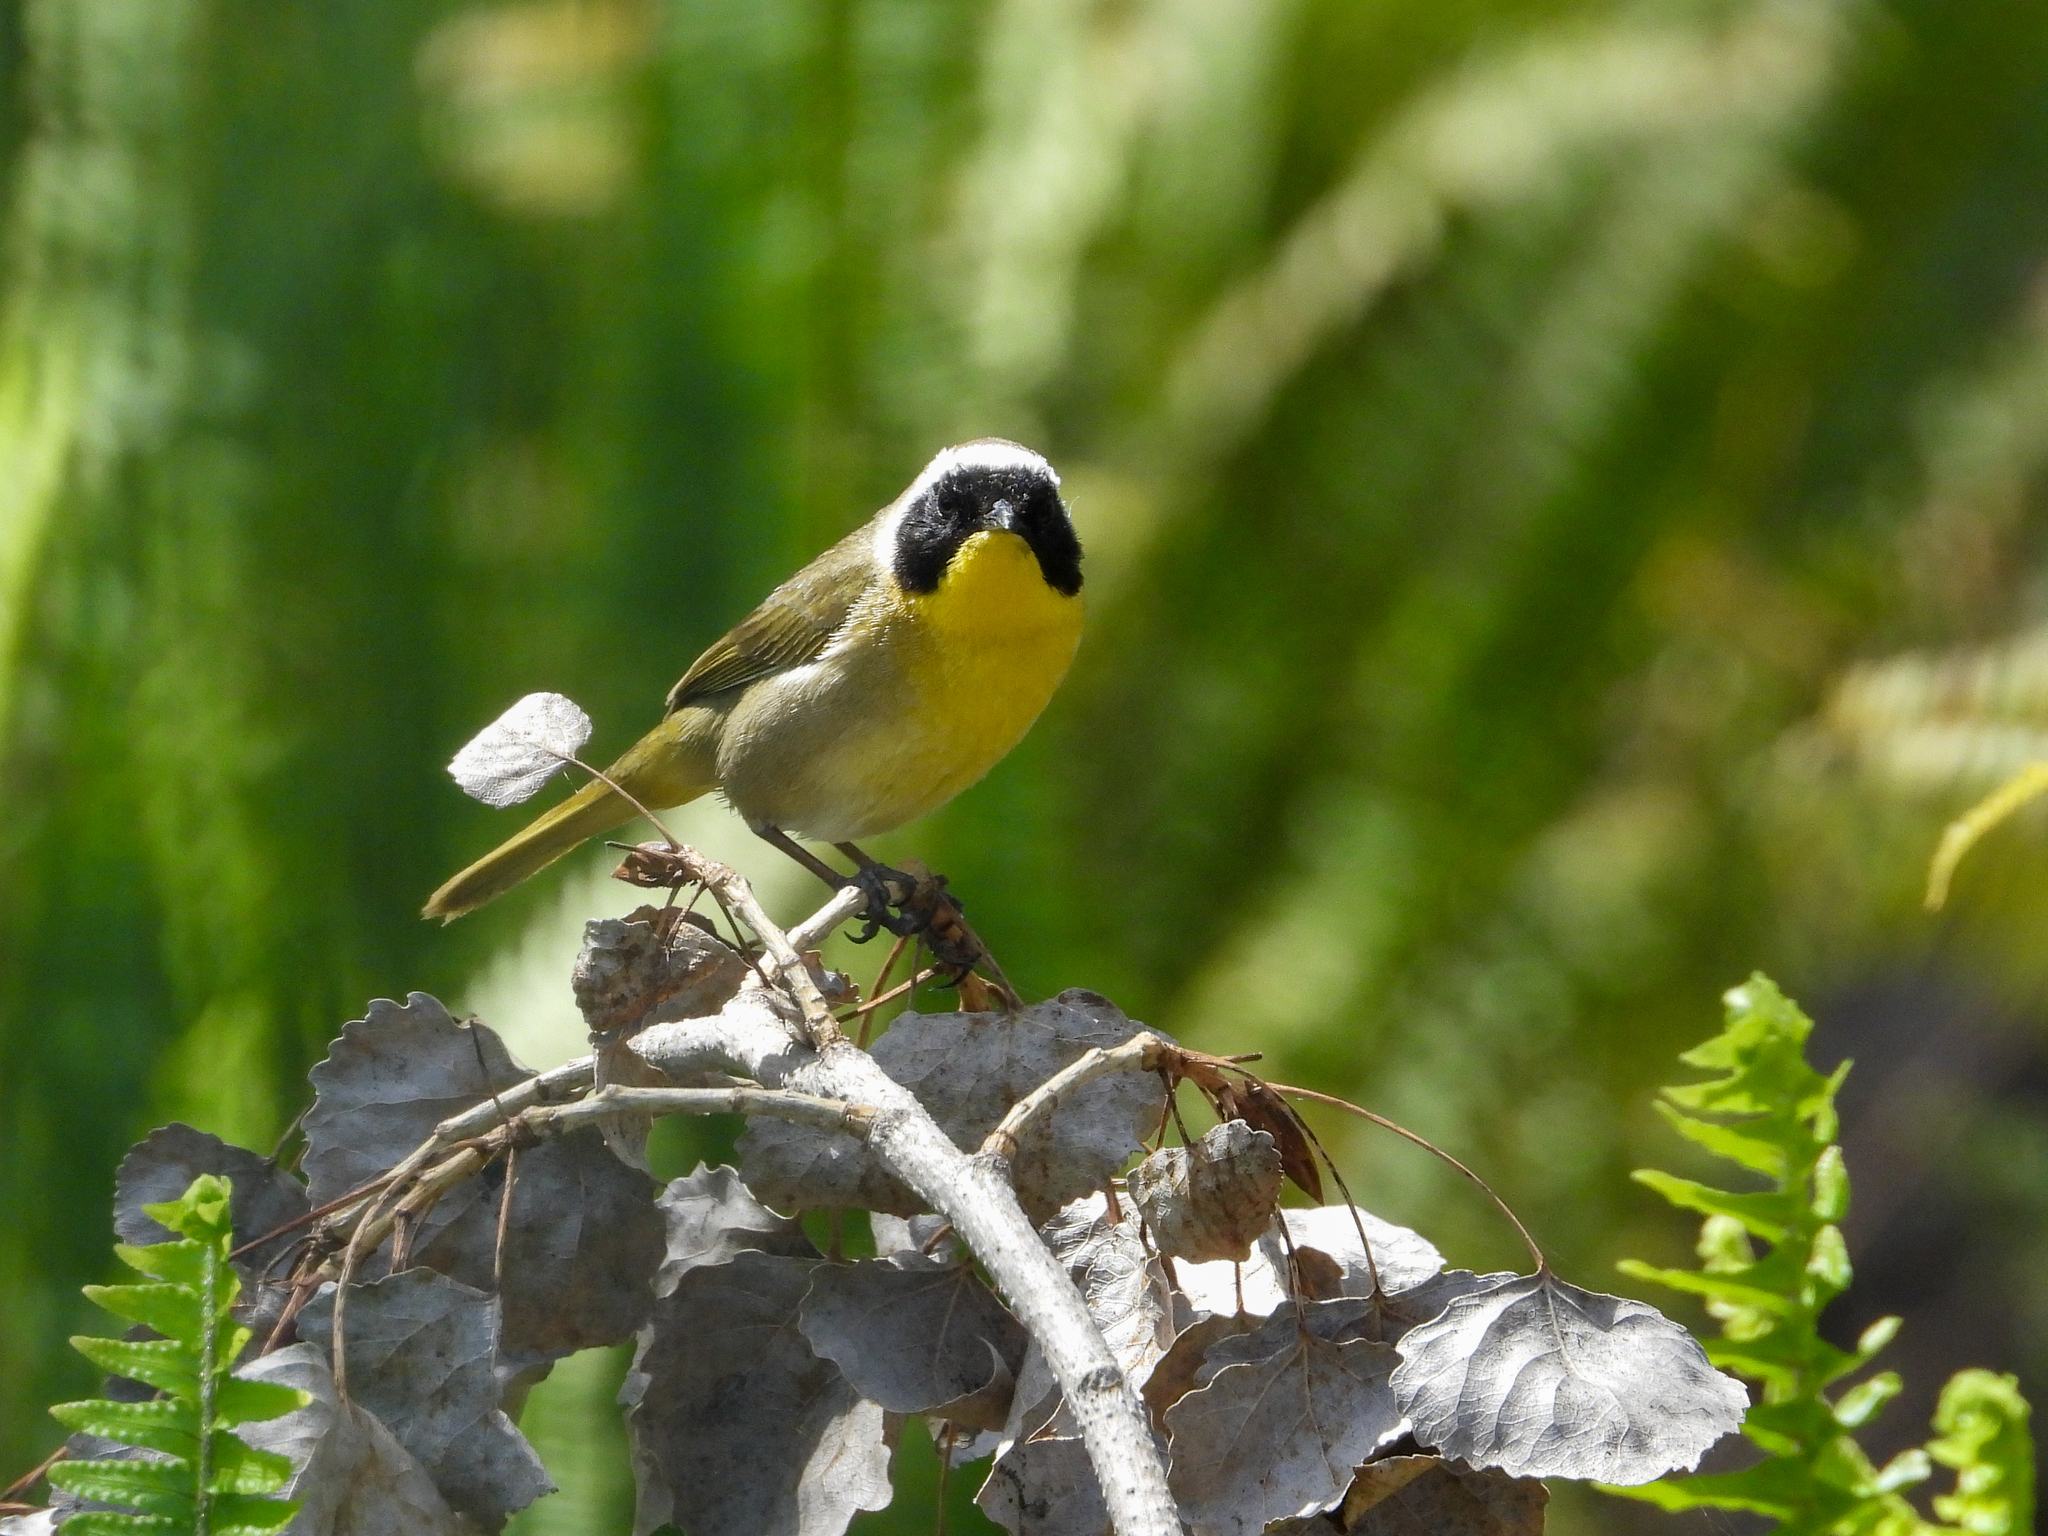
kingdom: Animalia
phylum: Chordata
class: Aves
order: Passeriformes
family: Parulidae
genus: Geothlypis
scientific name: Geothlypis trichas
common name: Common yellowthroat
